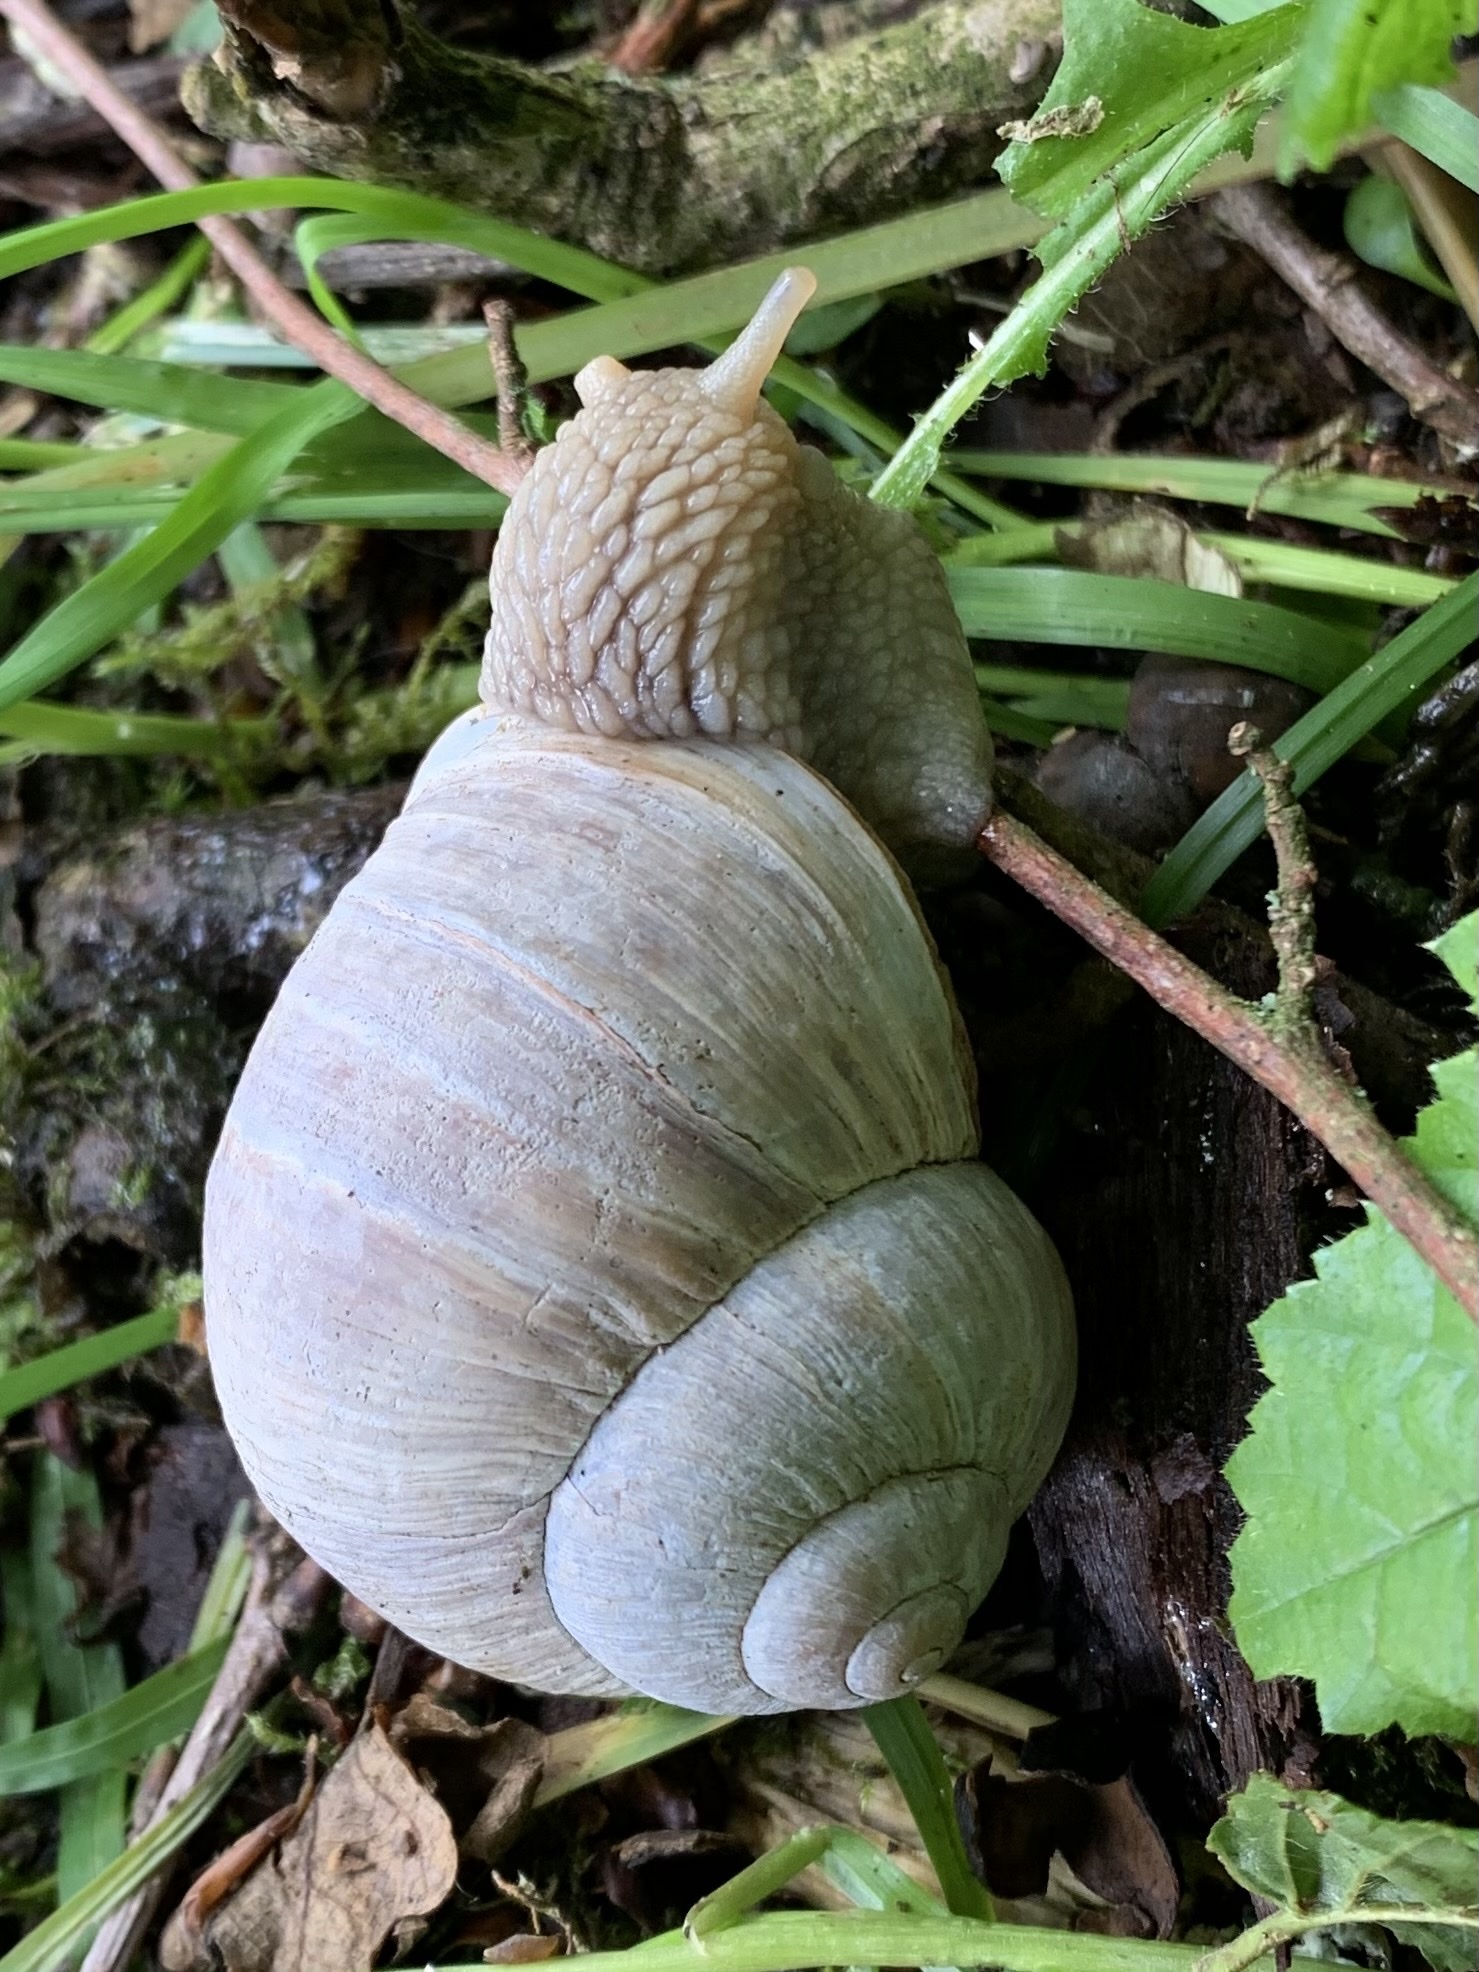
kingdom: Animalia
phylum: Mollusca
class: Gastropoda
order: Stylommatophora
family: Helicidae
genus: Helix
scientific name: Helix pomatia
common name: Roman snail
